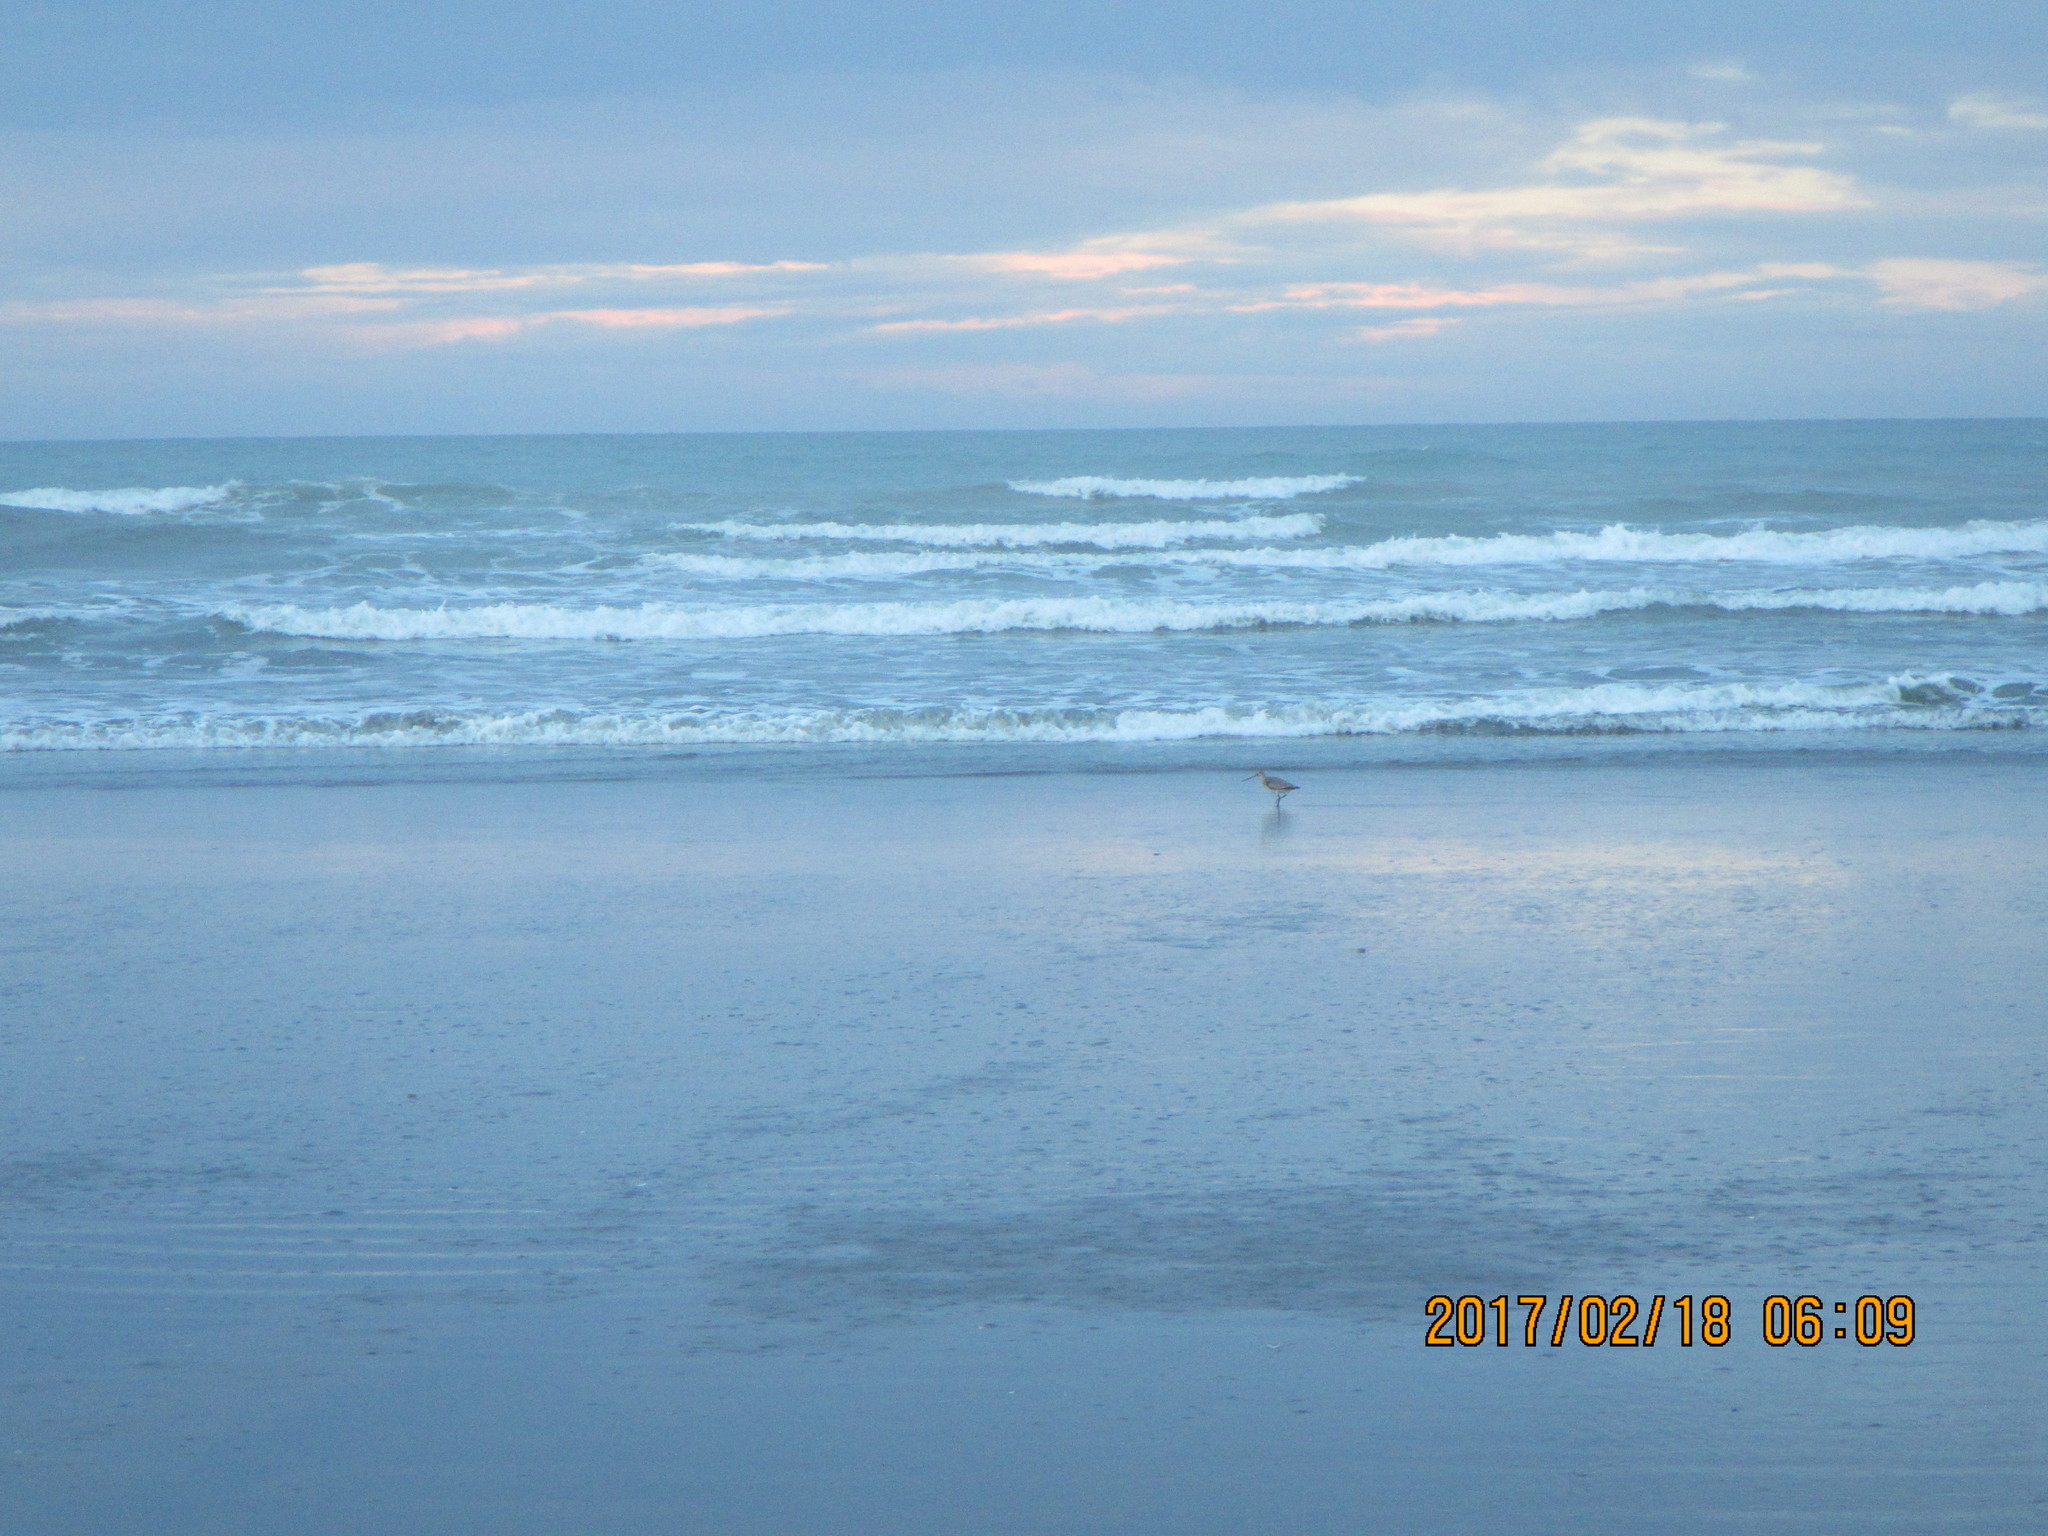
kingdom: Animalia
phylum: Chordata
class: Aves
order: Charadriiformes
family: Scolopacidae
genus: Limosa
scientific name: Limosa lapponica
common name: Bar-tailed godwit
